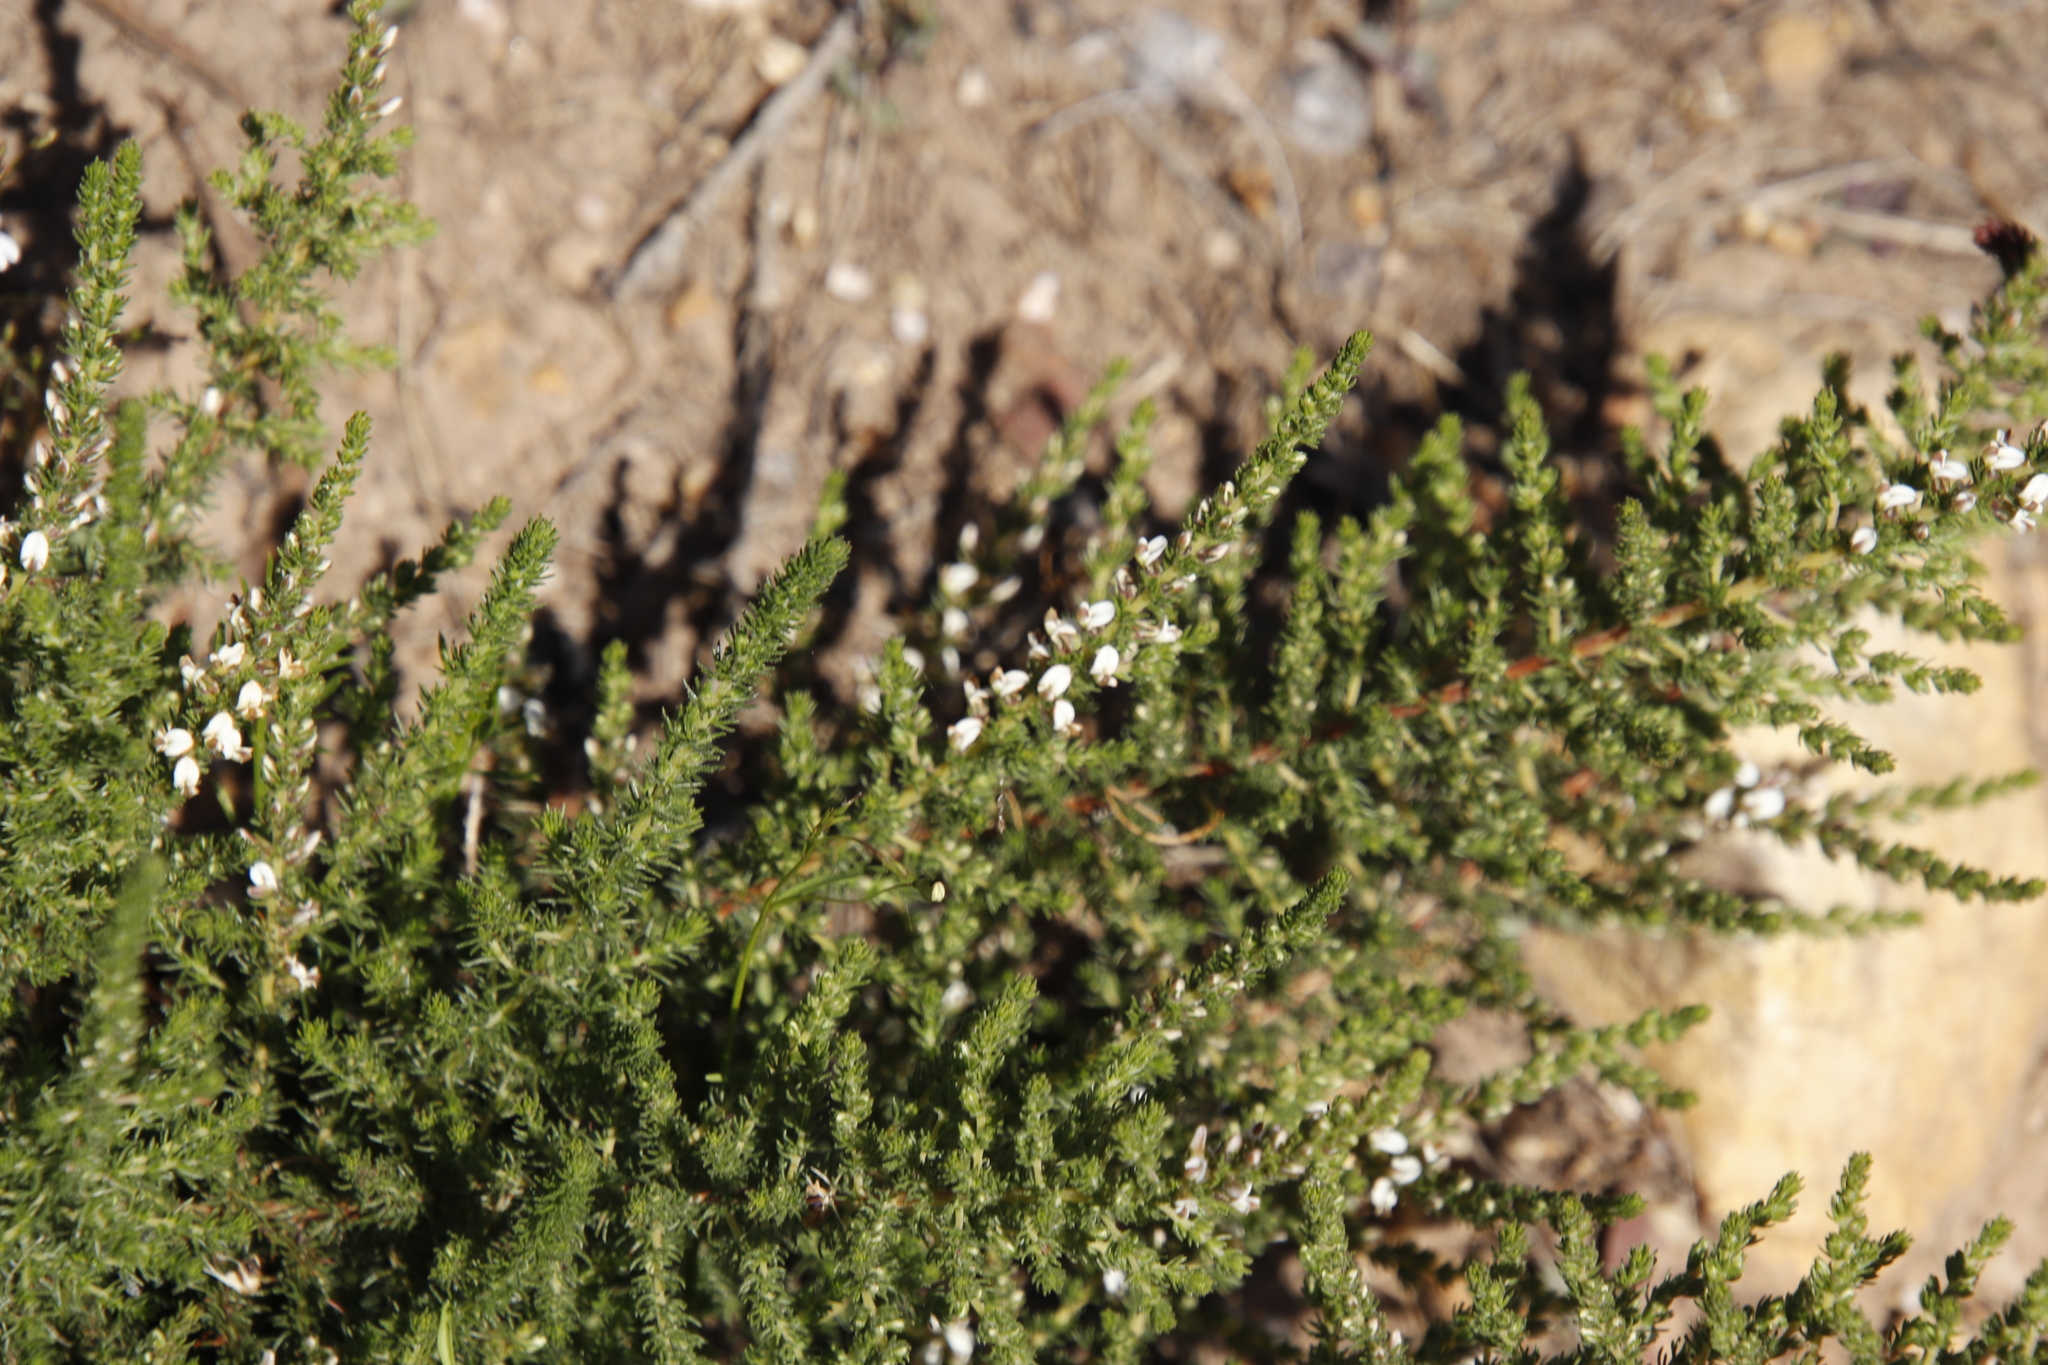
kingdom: Plantae
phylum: Tracheophyta
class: Magnoliopsida
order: Fabales
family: Fabaceae
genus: Aspalathus
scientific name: Aspalathus hispida
